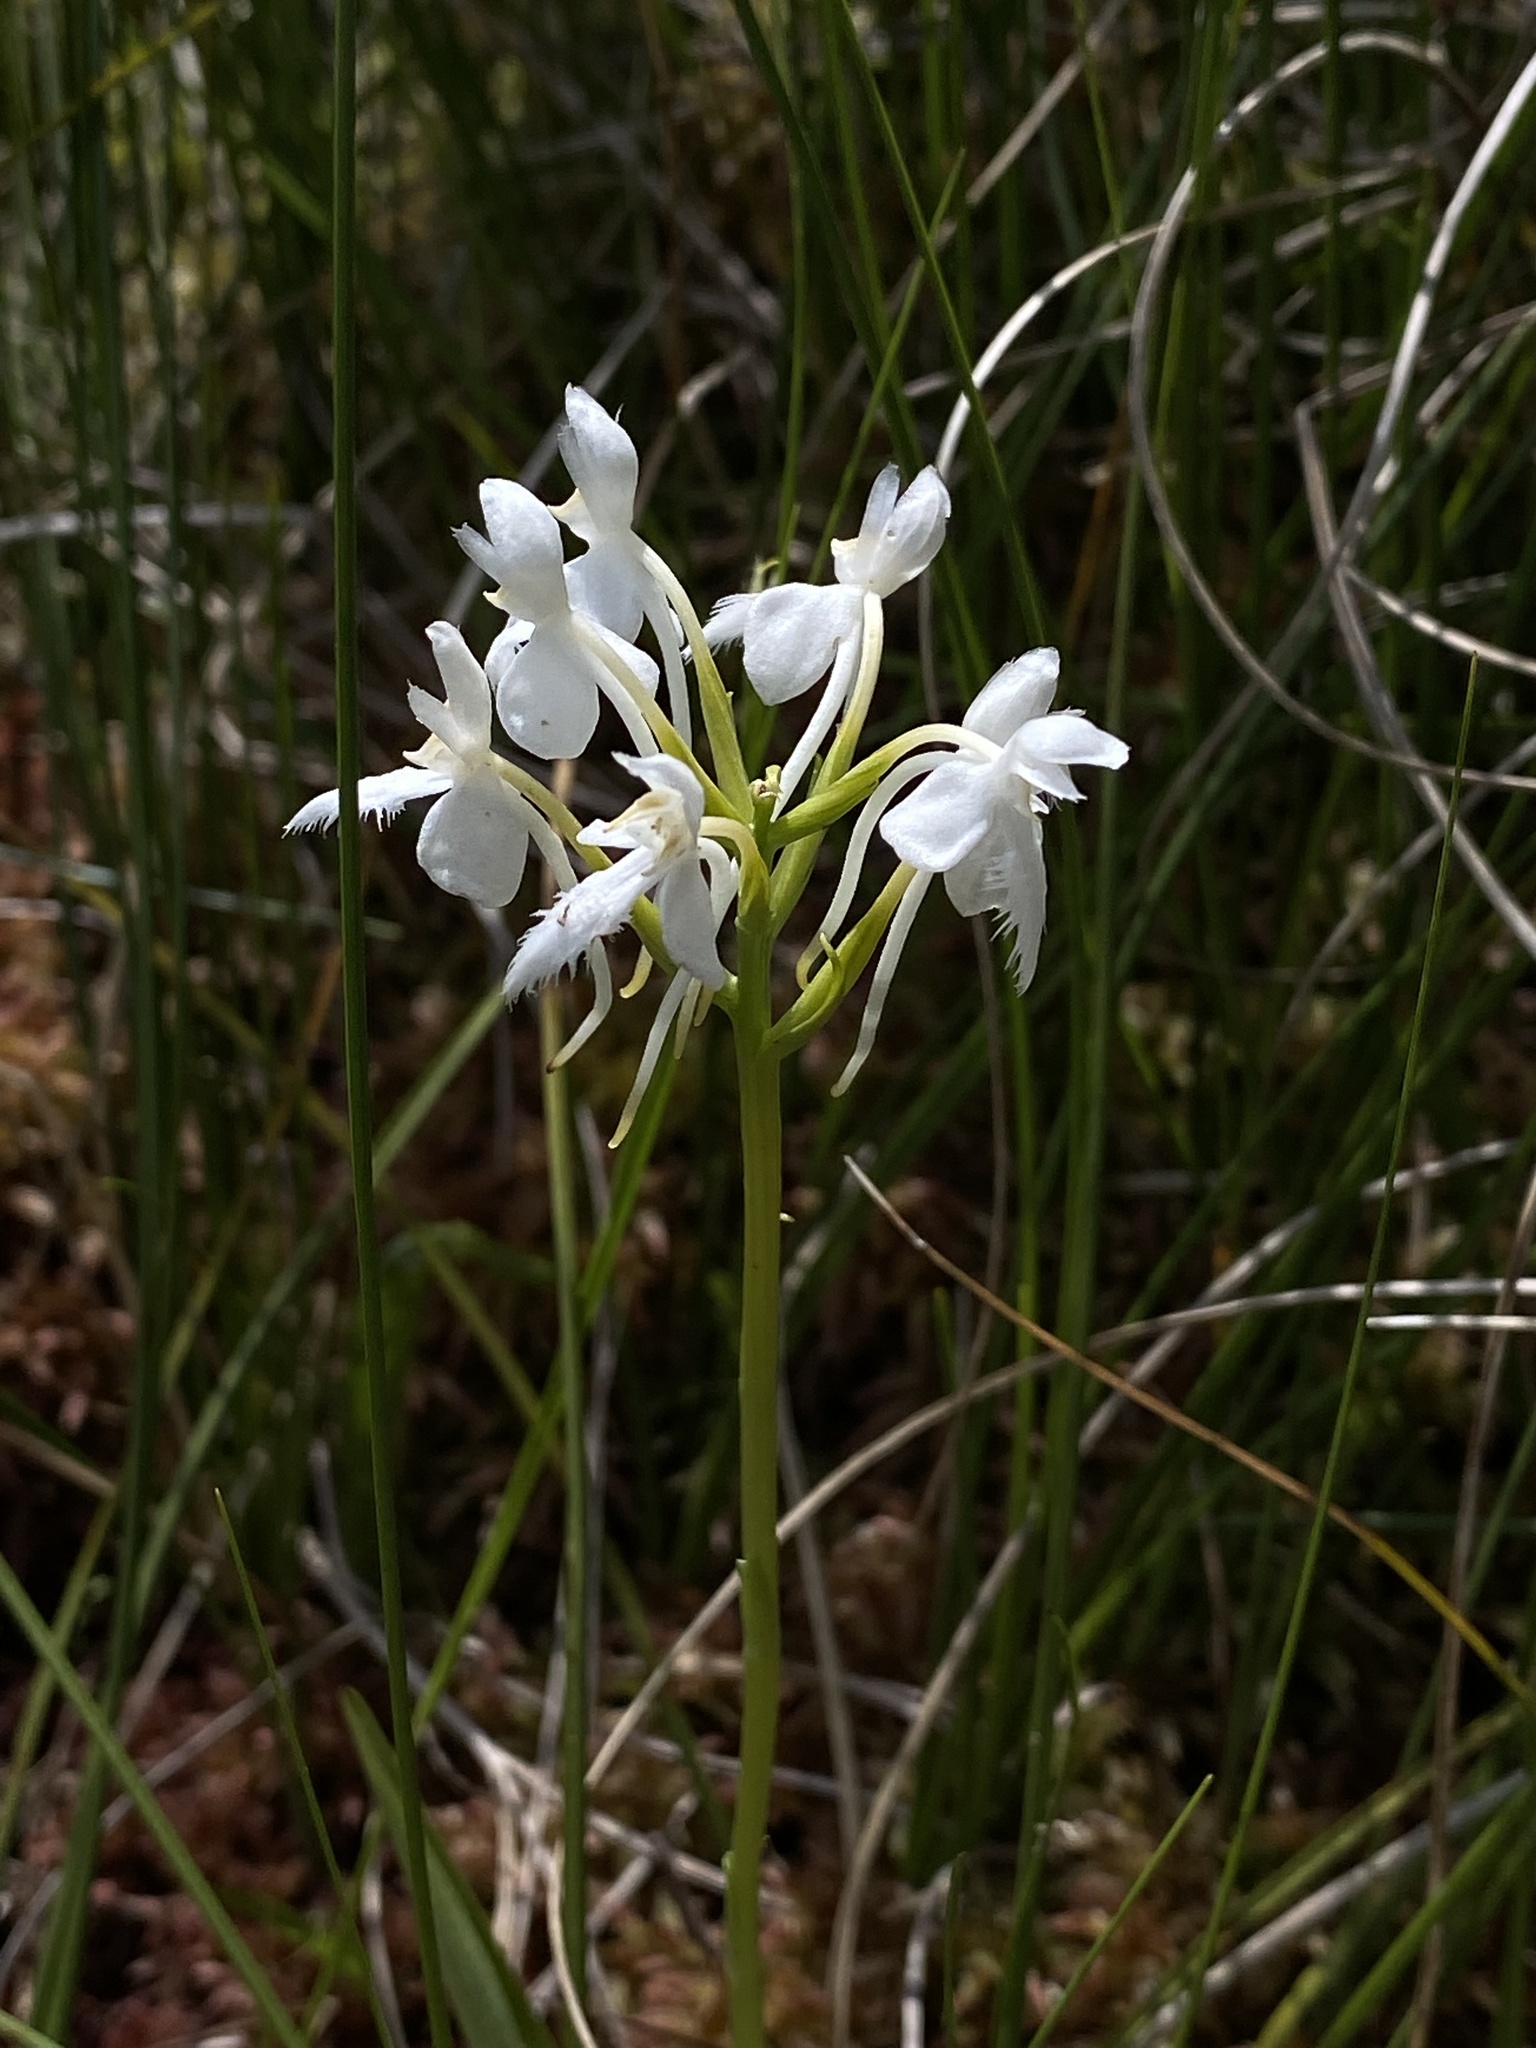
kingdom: Plantae
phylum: Tracheophyta
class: Liliopsida
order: Asparagales
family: Orchidaceae
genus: Platanthera
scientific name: Platanthera blephariglottis
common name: White fringed orchid
